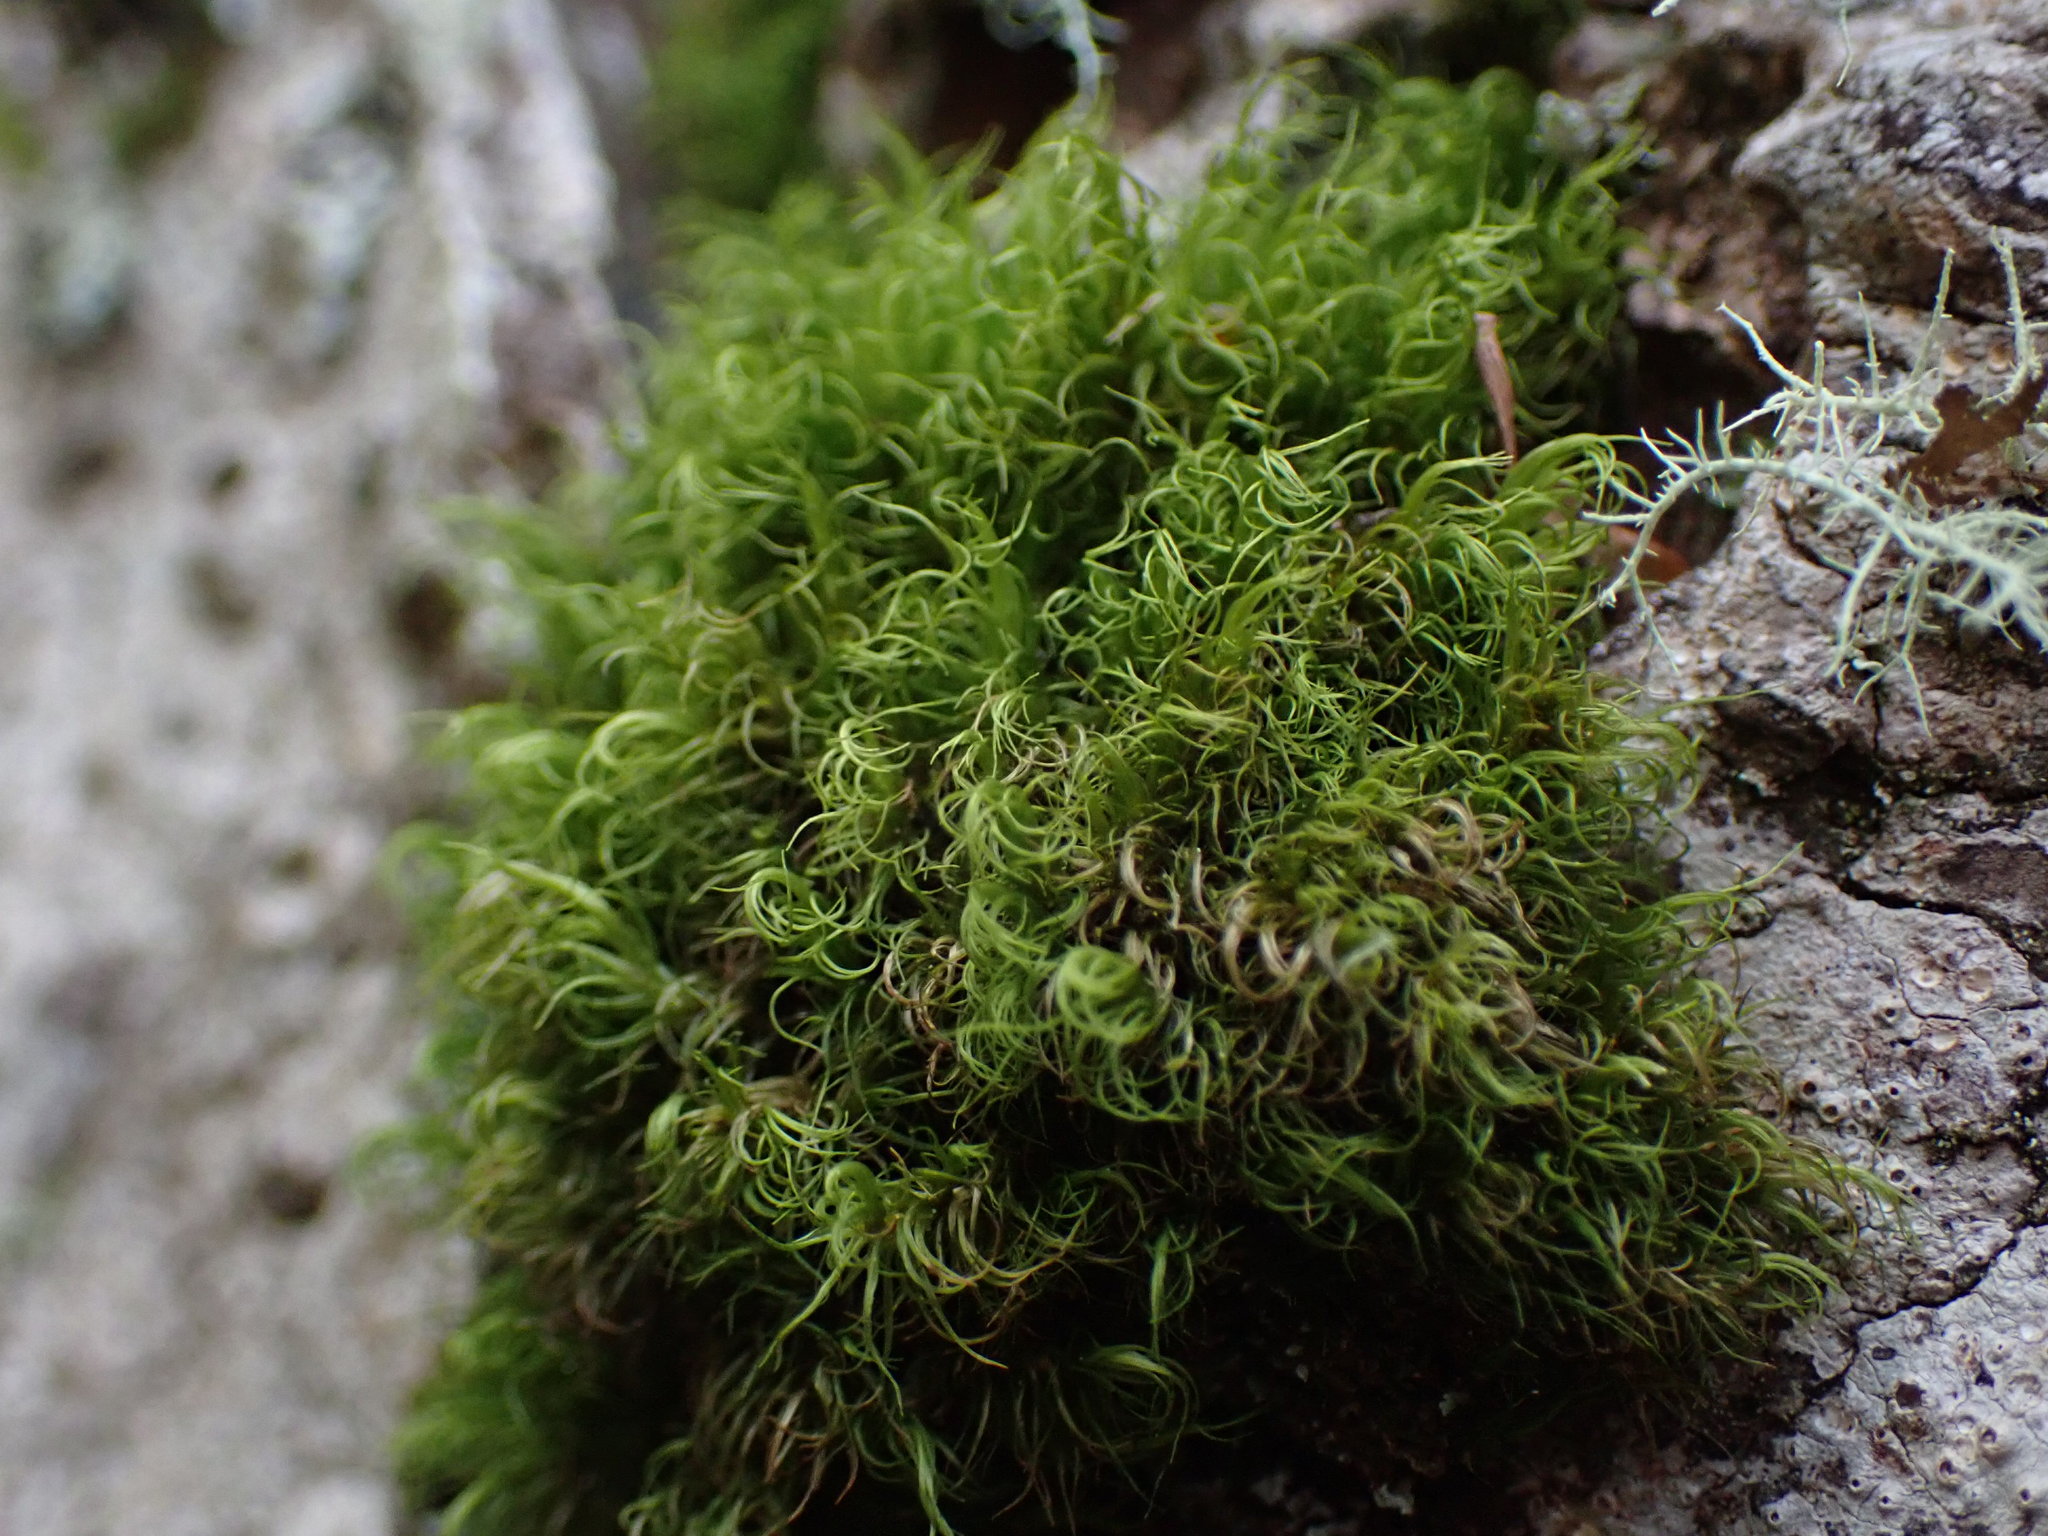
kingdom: Plantae
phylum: Bryophyta
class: Bryopsida
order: Dicranales
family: Dicranaceae
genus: Dicranum
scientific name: Dicranum fuscescens
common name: Curly heron's-bill moss
